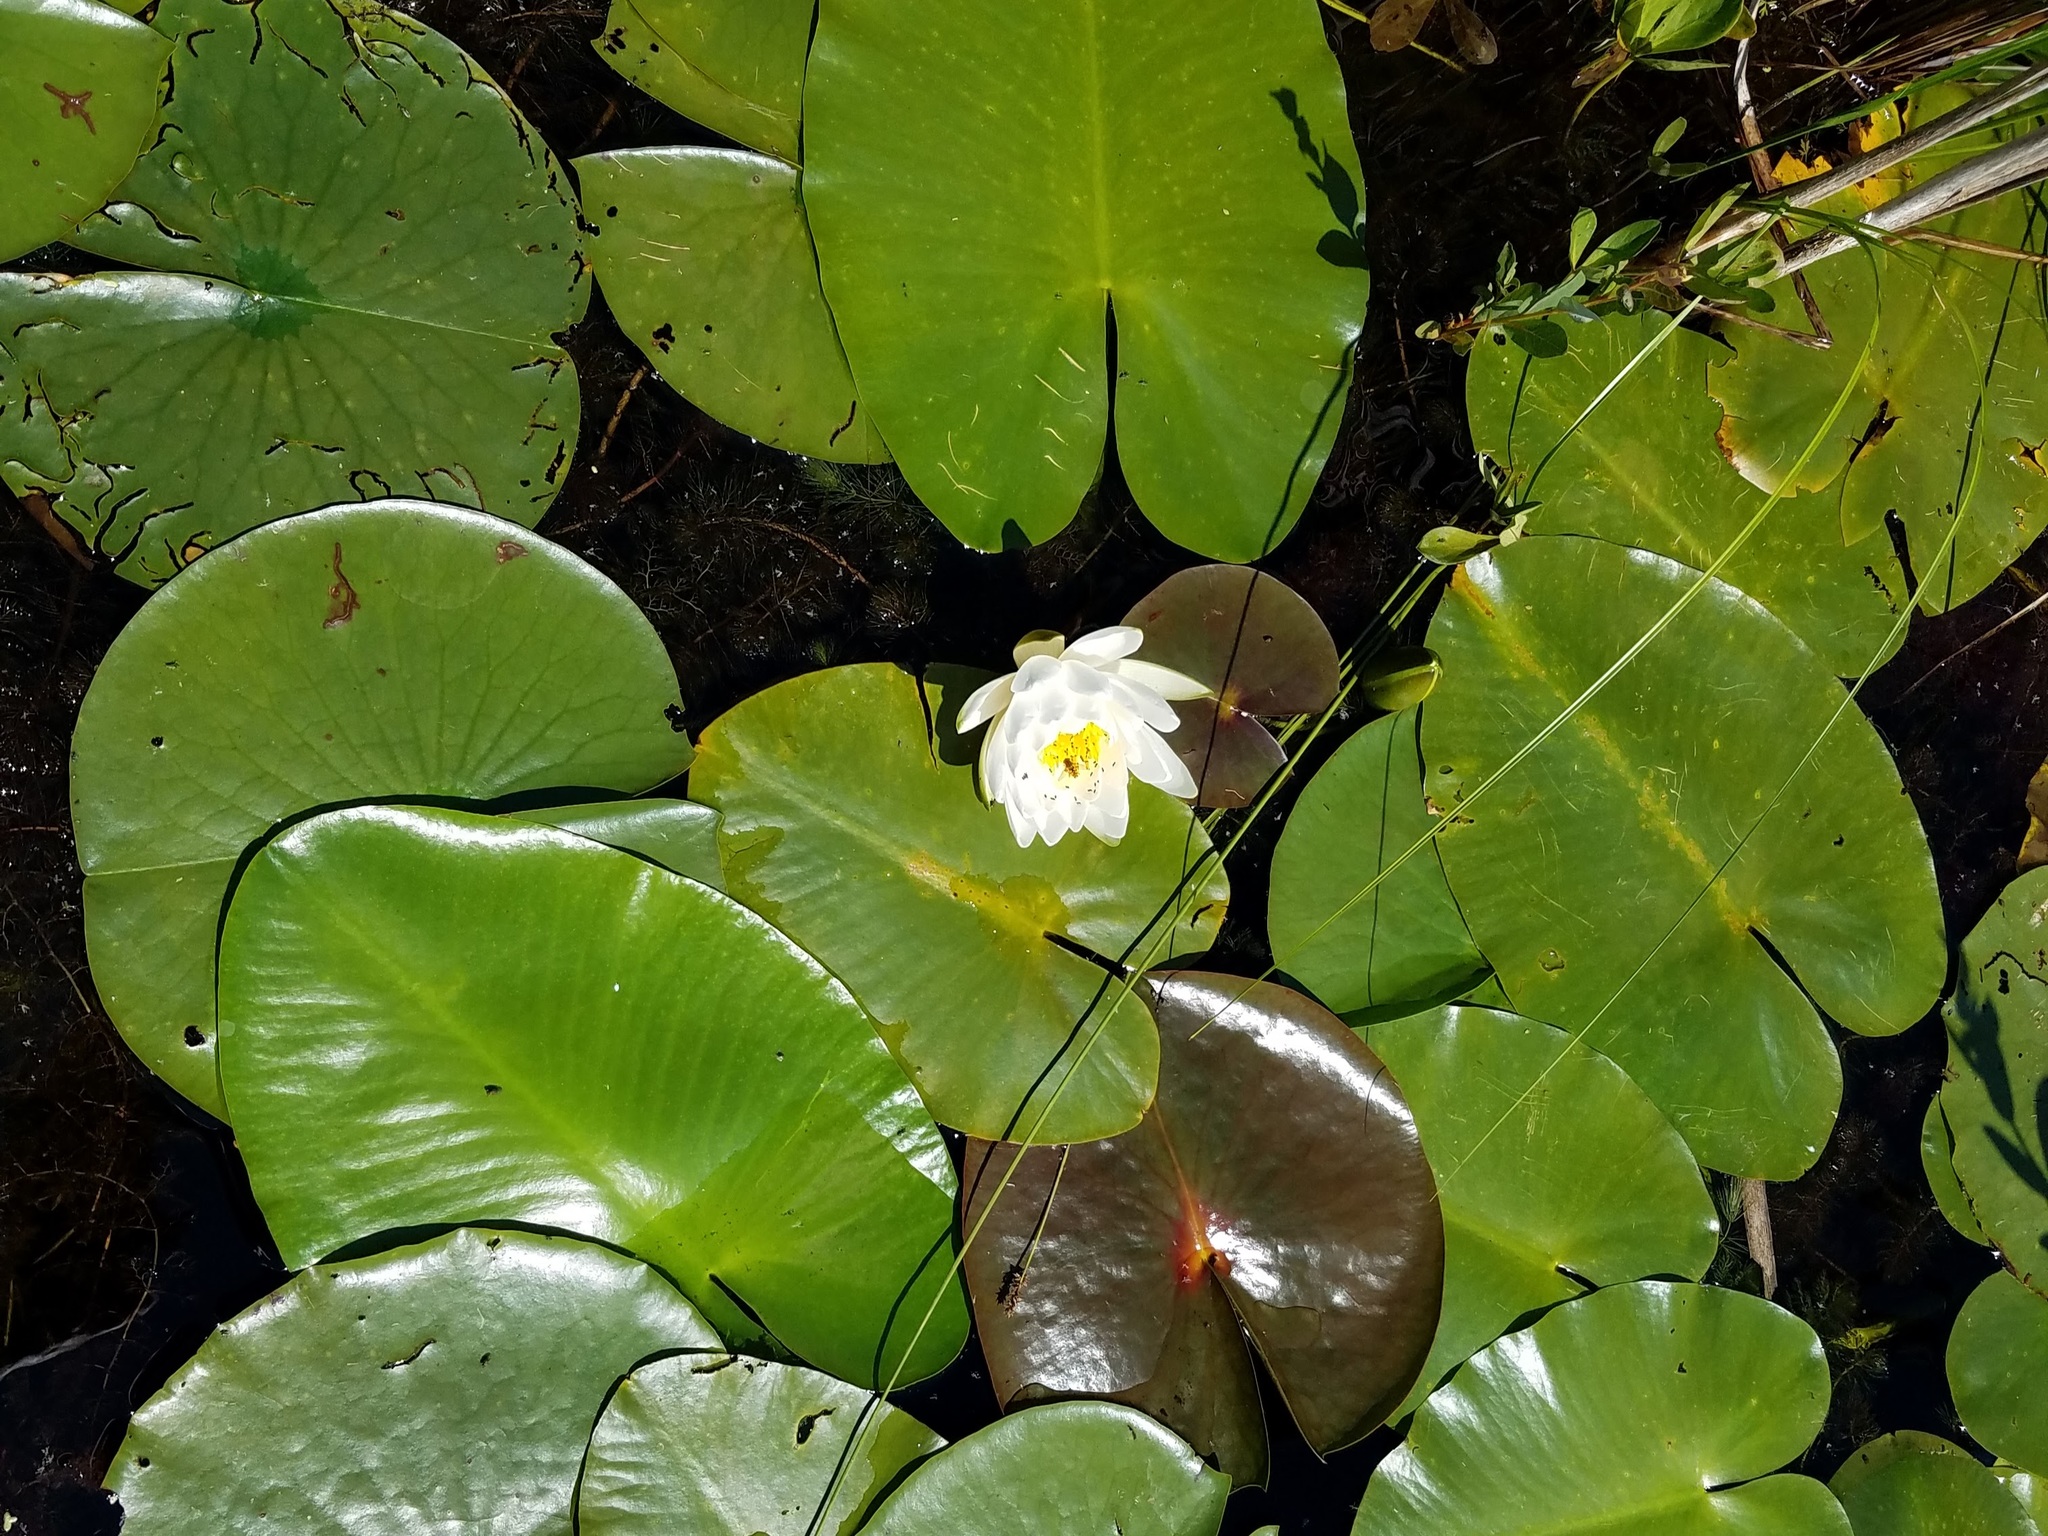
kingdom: Plantae
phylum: Tracheophyta
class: Magnoliopsida
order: Nymphaeales
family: Nymphaeaceae
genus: Nymphaea
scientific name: Nymphaea odorata
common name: Fragrant water-lily
